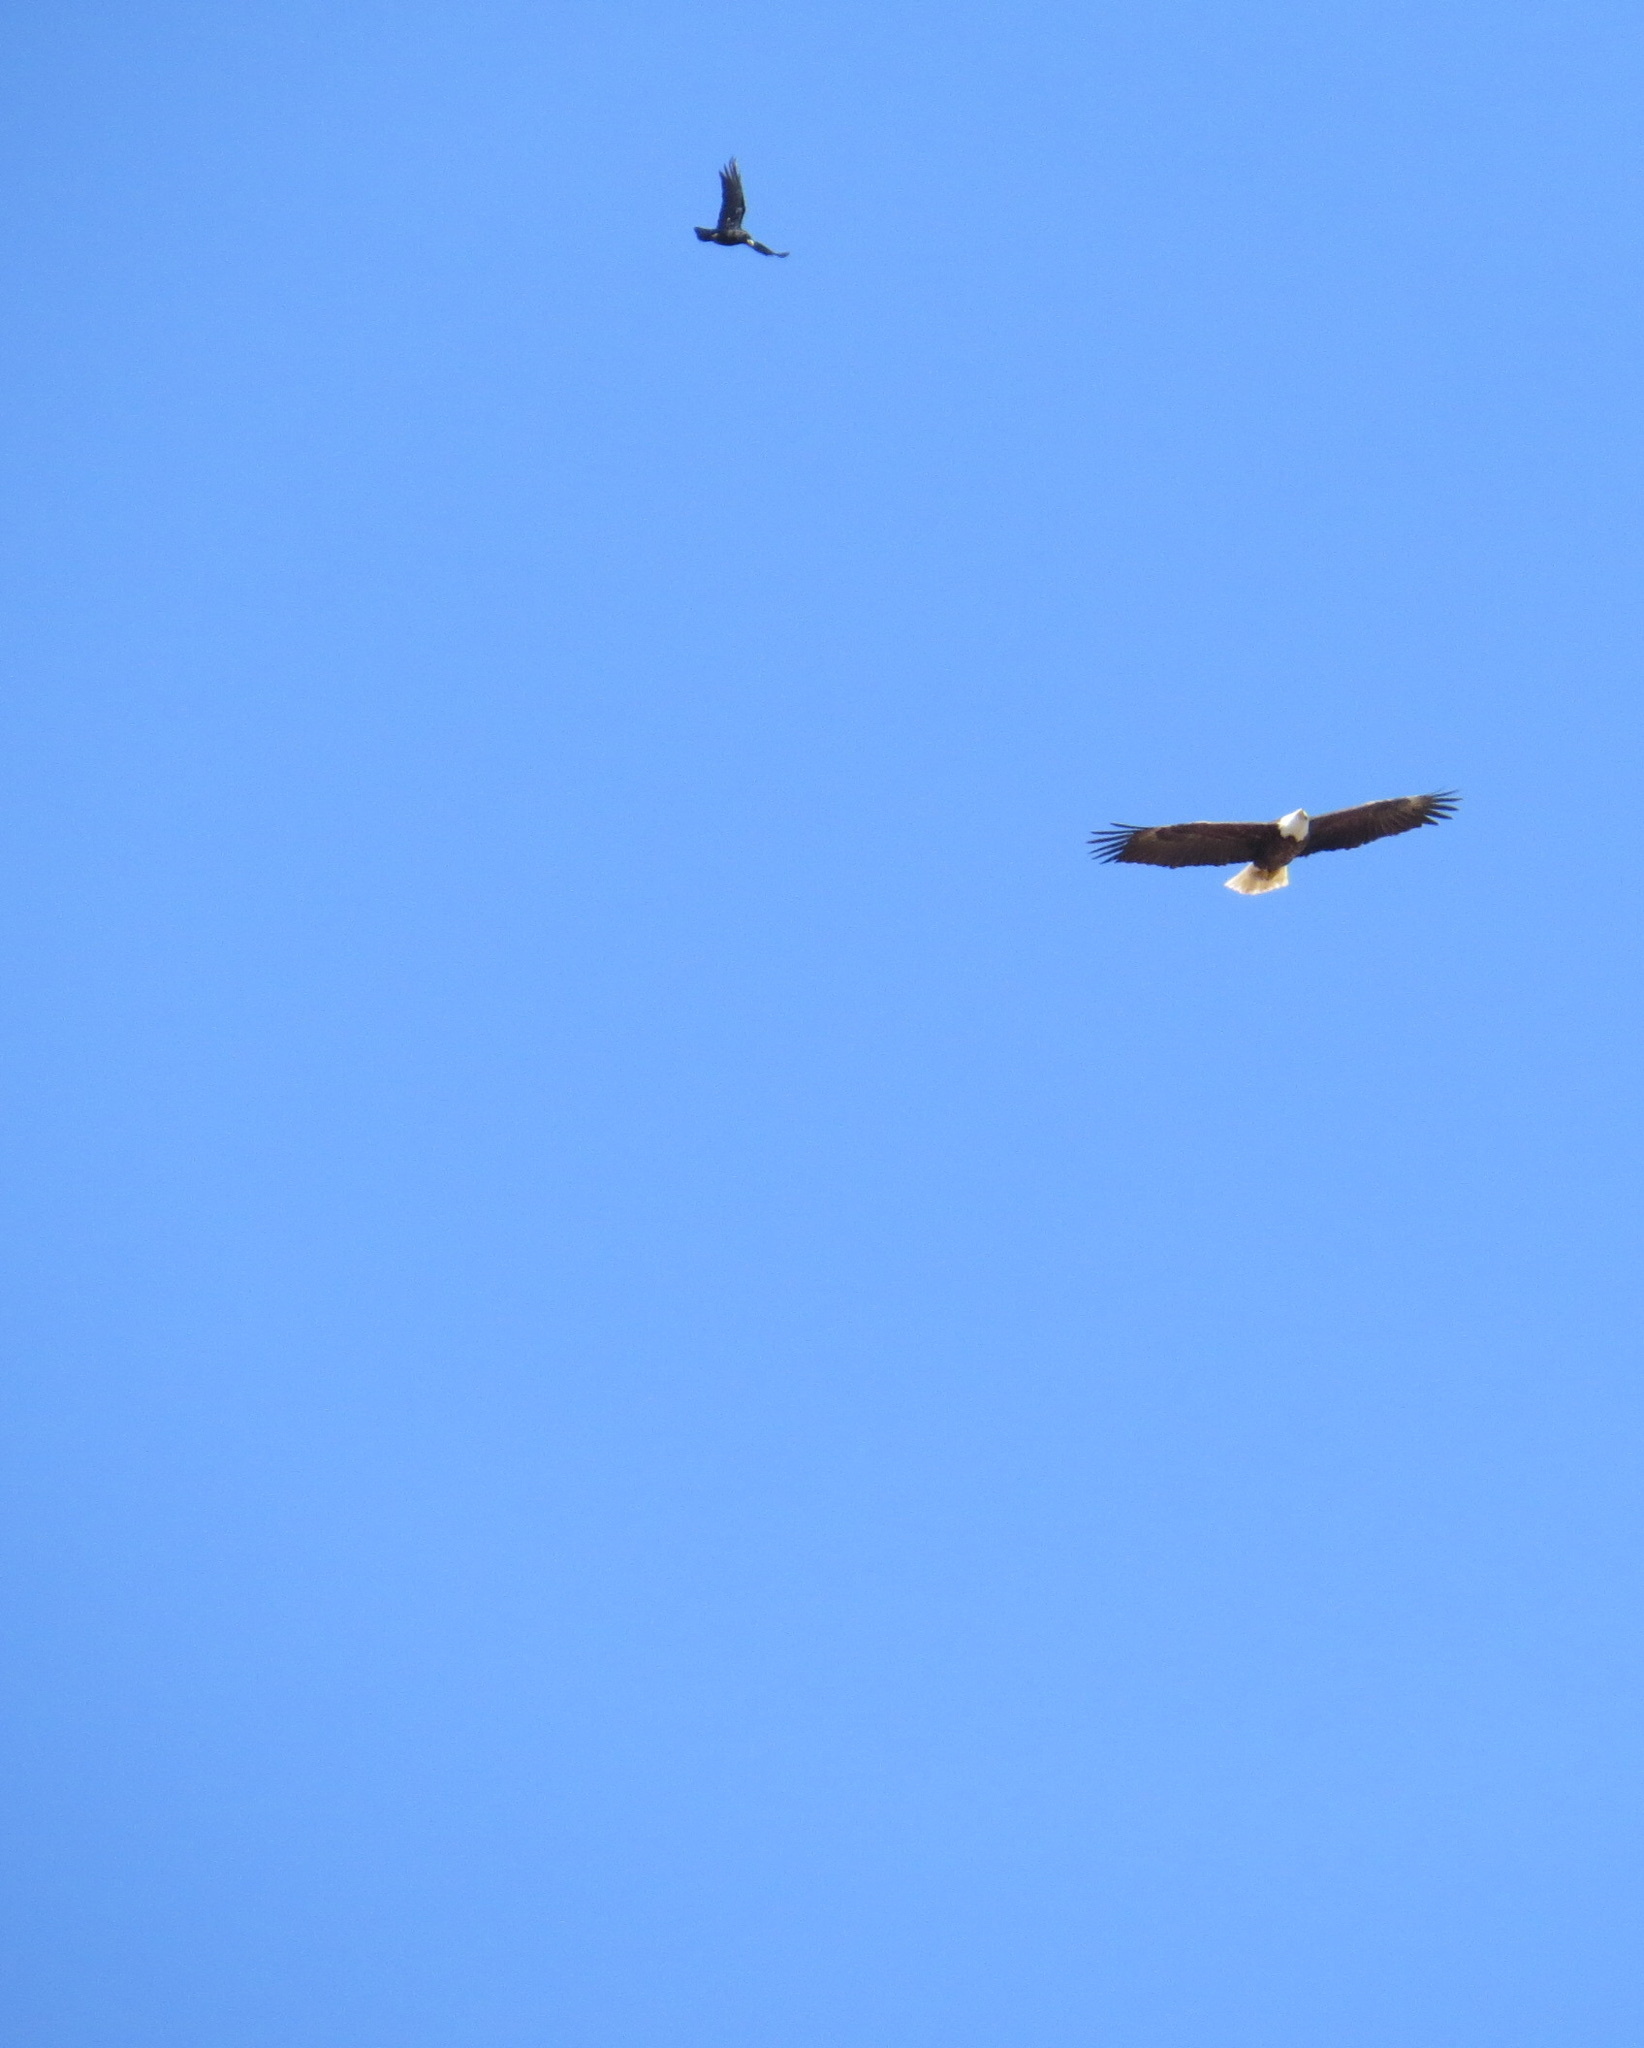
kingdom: Animalia
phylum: Chordata
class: Aves
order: Accipitriformes
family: Accipitridae
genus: Haliaeetus
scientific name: Haliaeetus leucocephalus
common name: Bald eagle
